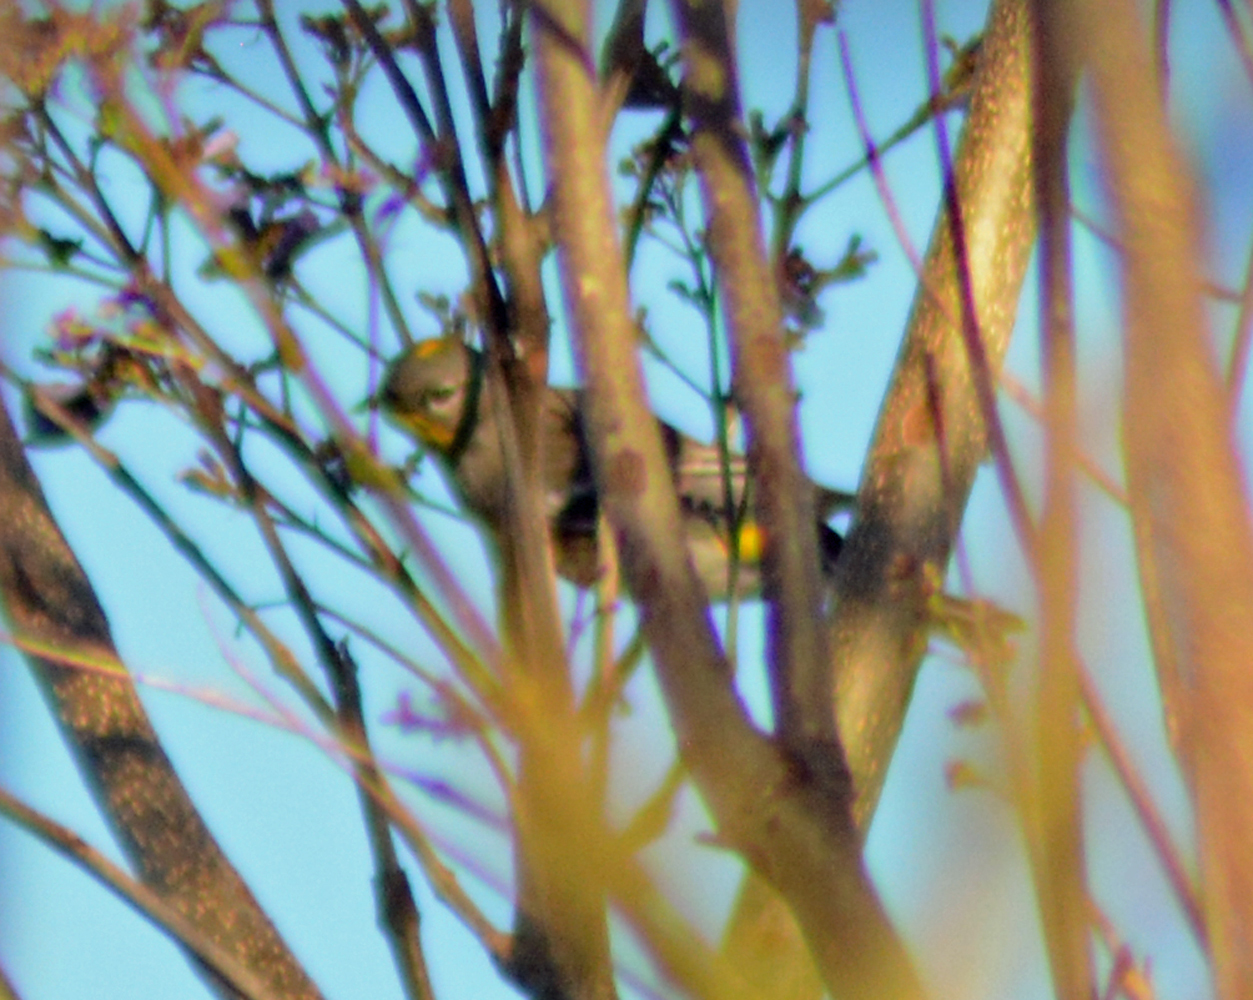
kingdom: Animalia
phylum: Chordata
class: Aves
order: Passeriformes
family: Parulidae
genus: Setophaga
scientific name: Setophaga auduboni
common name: Audubon's warbler
